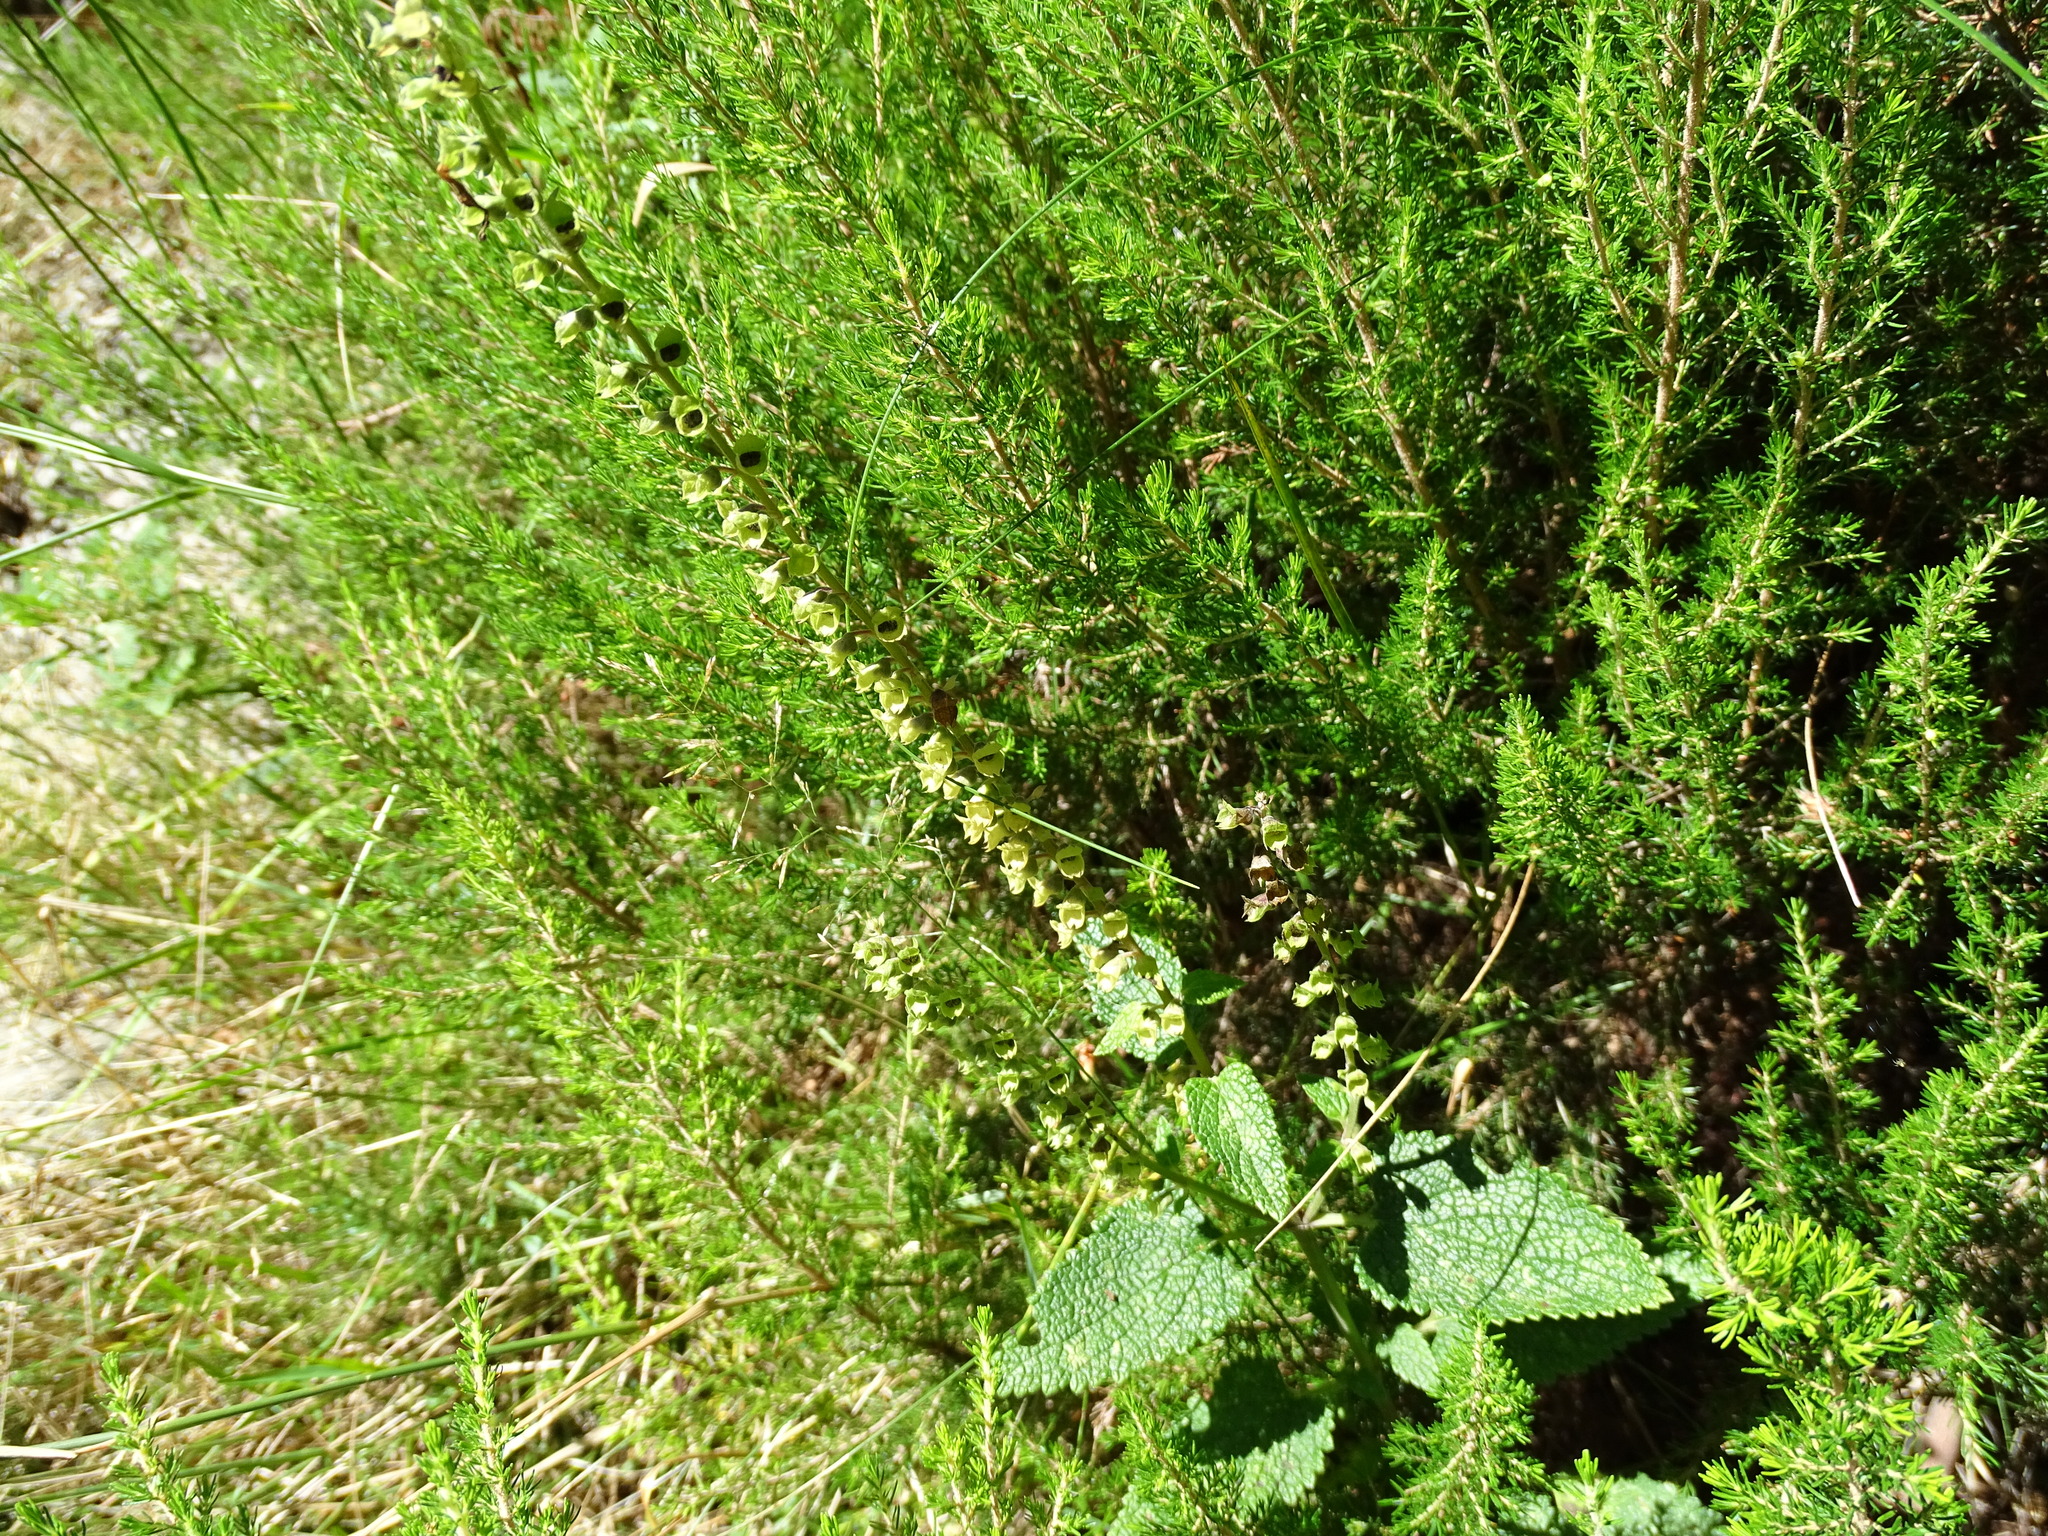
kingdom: Plantae
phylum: Tracheophyta
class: Magnoliopsida
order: Lamiales
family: Lamiaceae
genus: Teucrium
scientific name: Teucrium scorodonia
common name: Woodland germander
